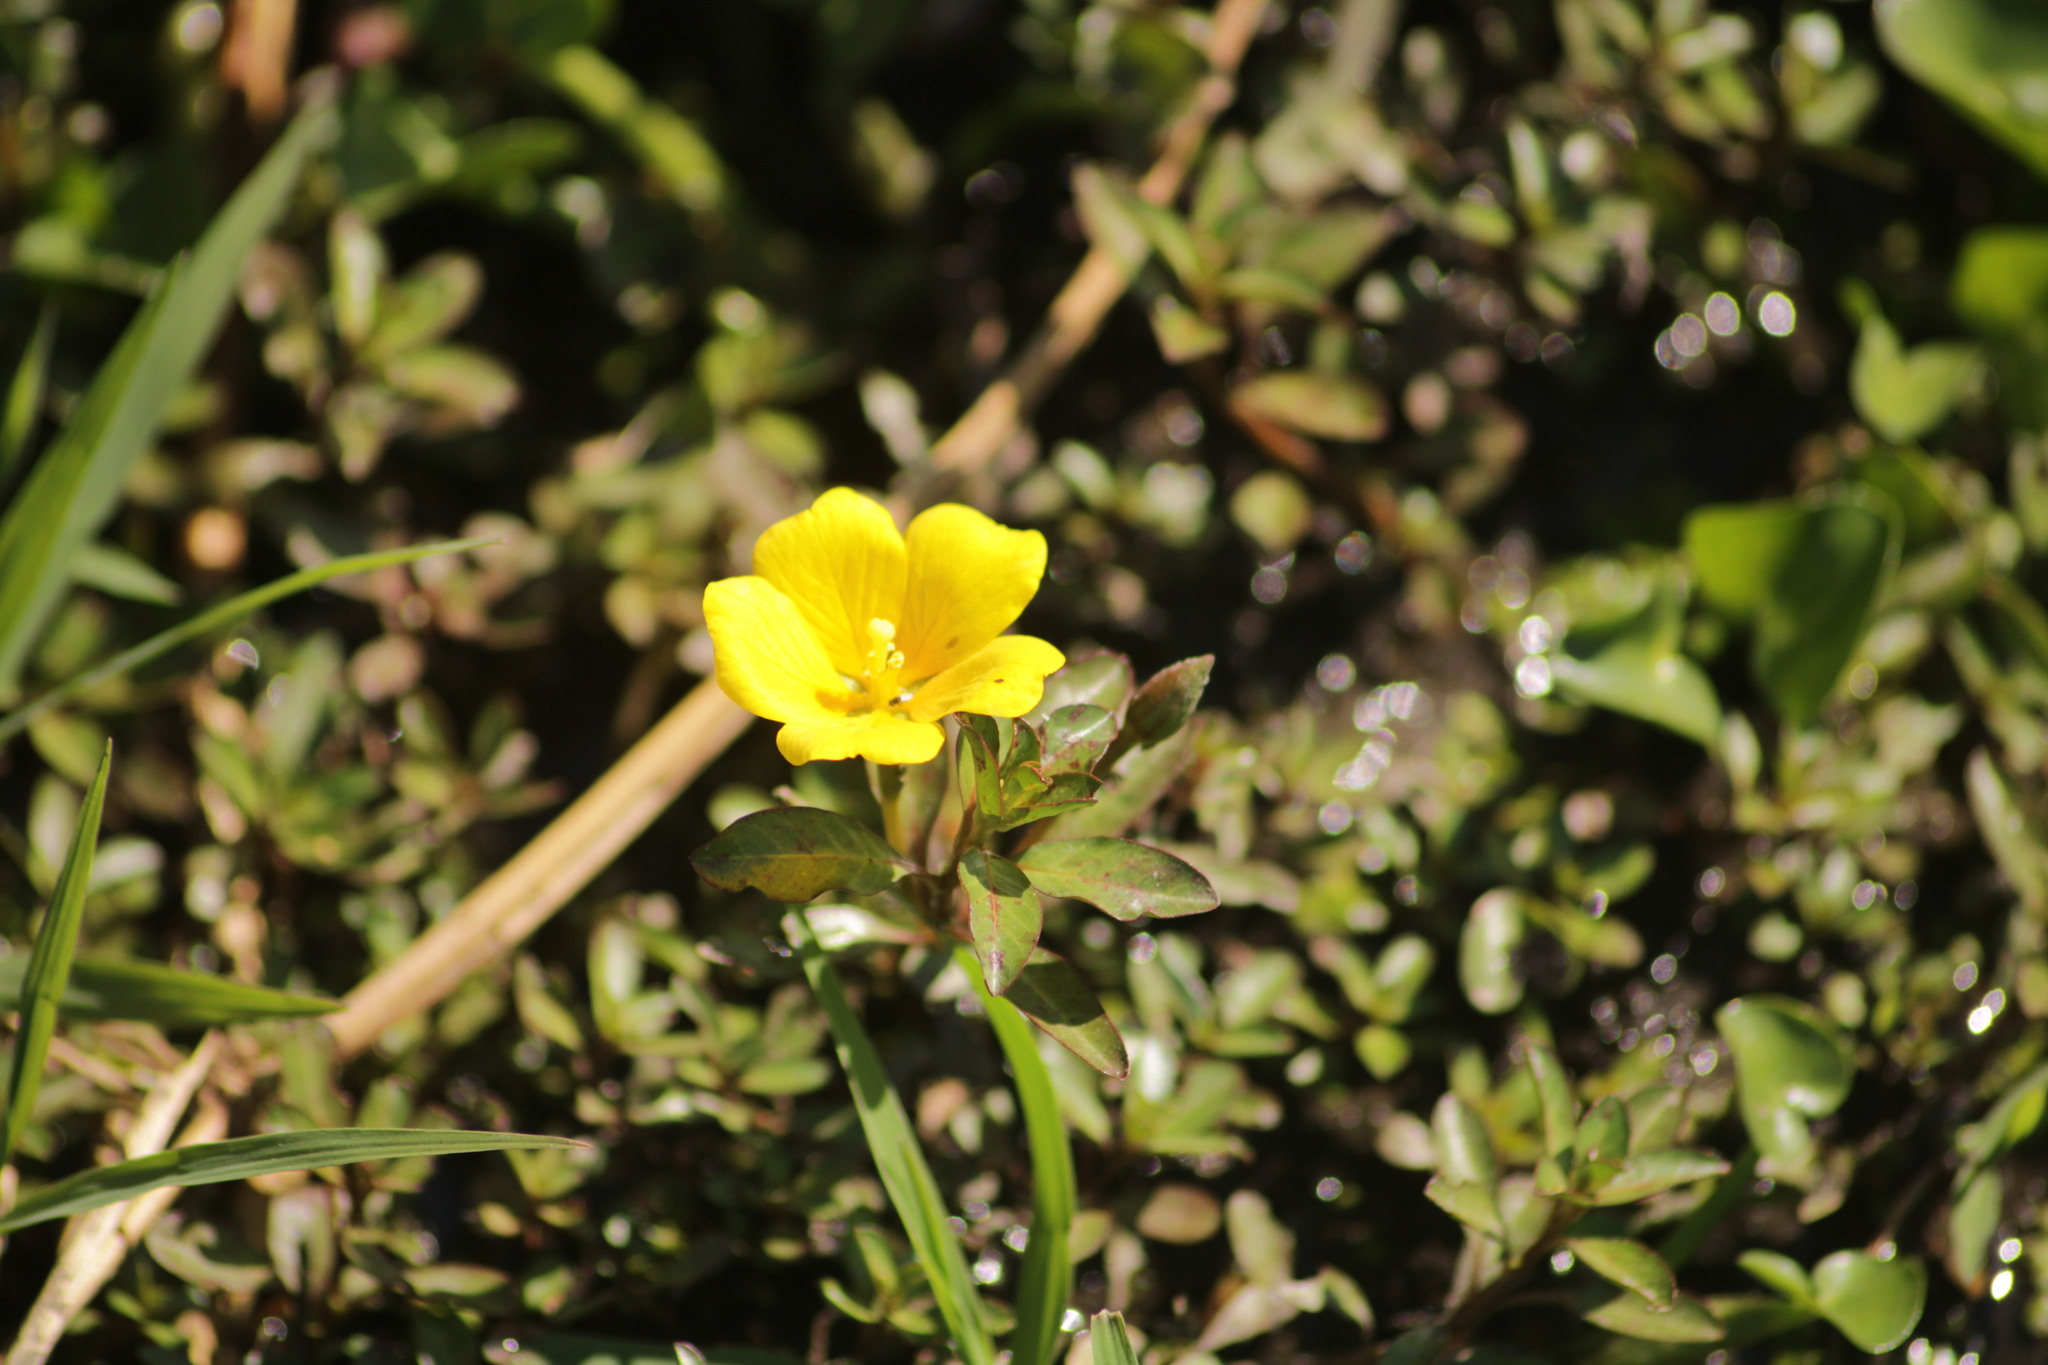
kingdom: Plantae
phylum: Tracheophyta
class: Magnoliopsida
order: Myrtales
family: Onagraceae
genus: Ludwigia
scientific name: Ludwigia peploides
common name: Floating primrose-willow
